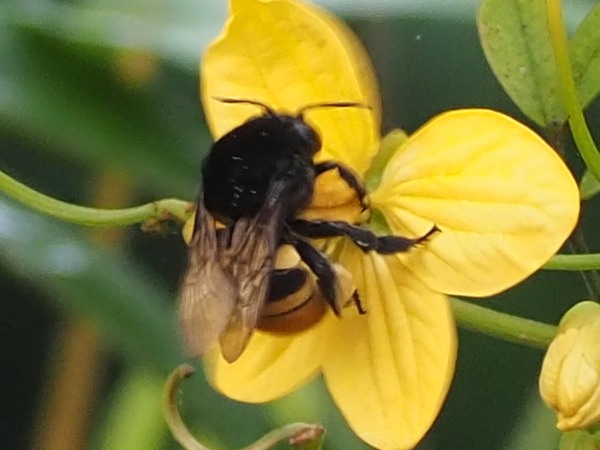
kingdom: Animalia
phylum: Arthropoda
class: Insecta
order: Hymenoptera
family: Apidae
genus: Eulaema
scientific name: Eulaema cingulata
